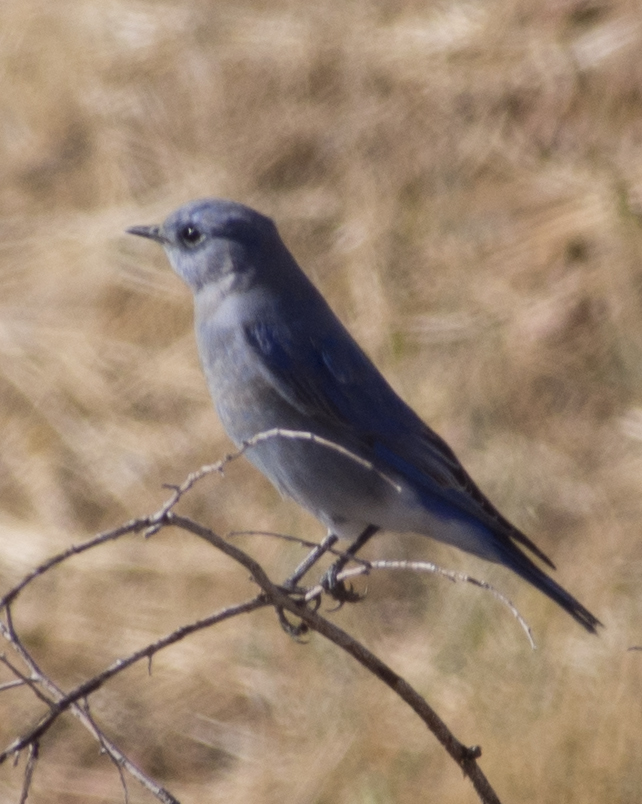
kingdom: Animalia
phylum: Chordata
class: Aves
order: Passeriformes
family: Turdidae
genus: Sialia
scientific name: Sialia currucoides
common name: Mountain bluebird
